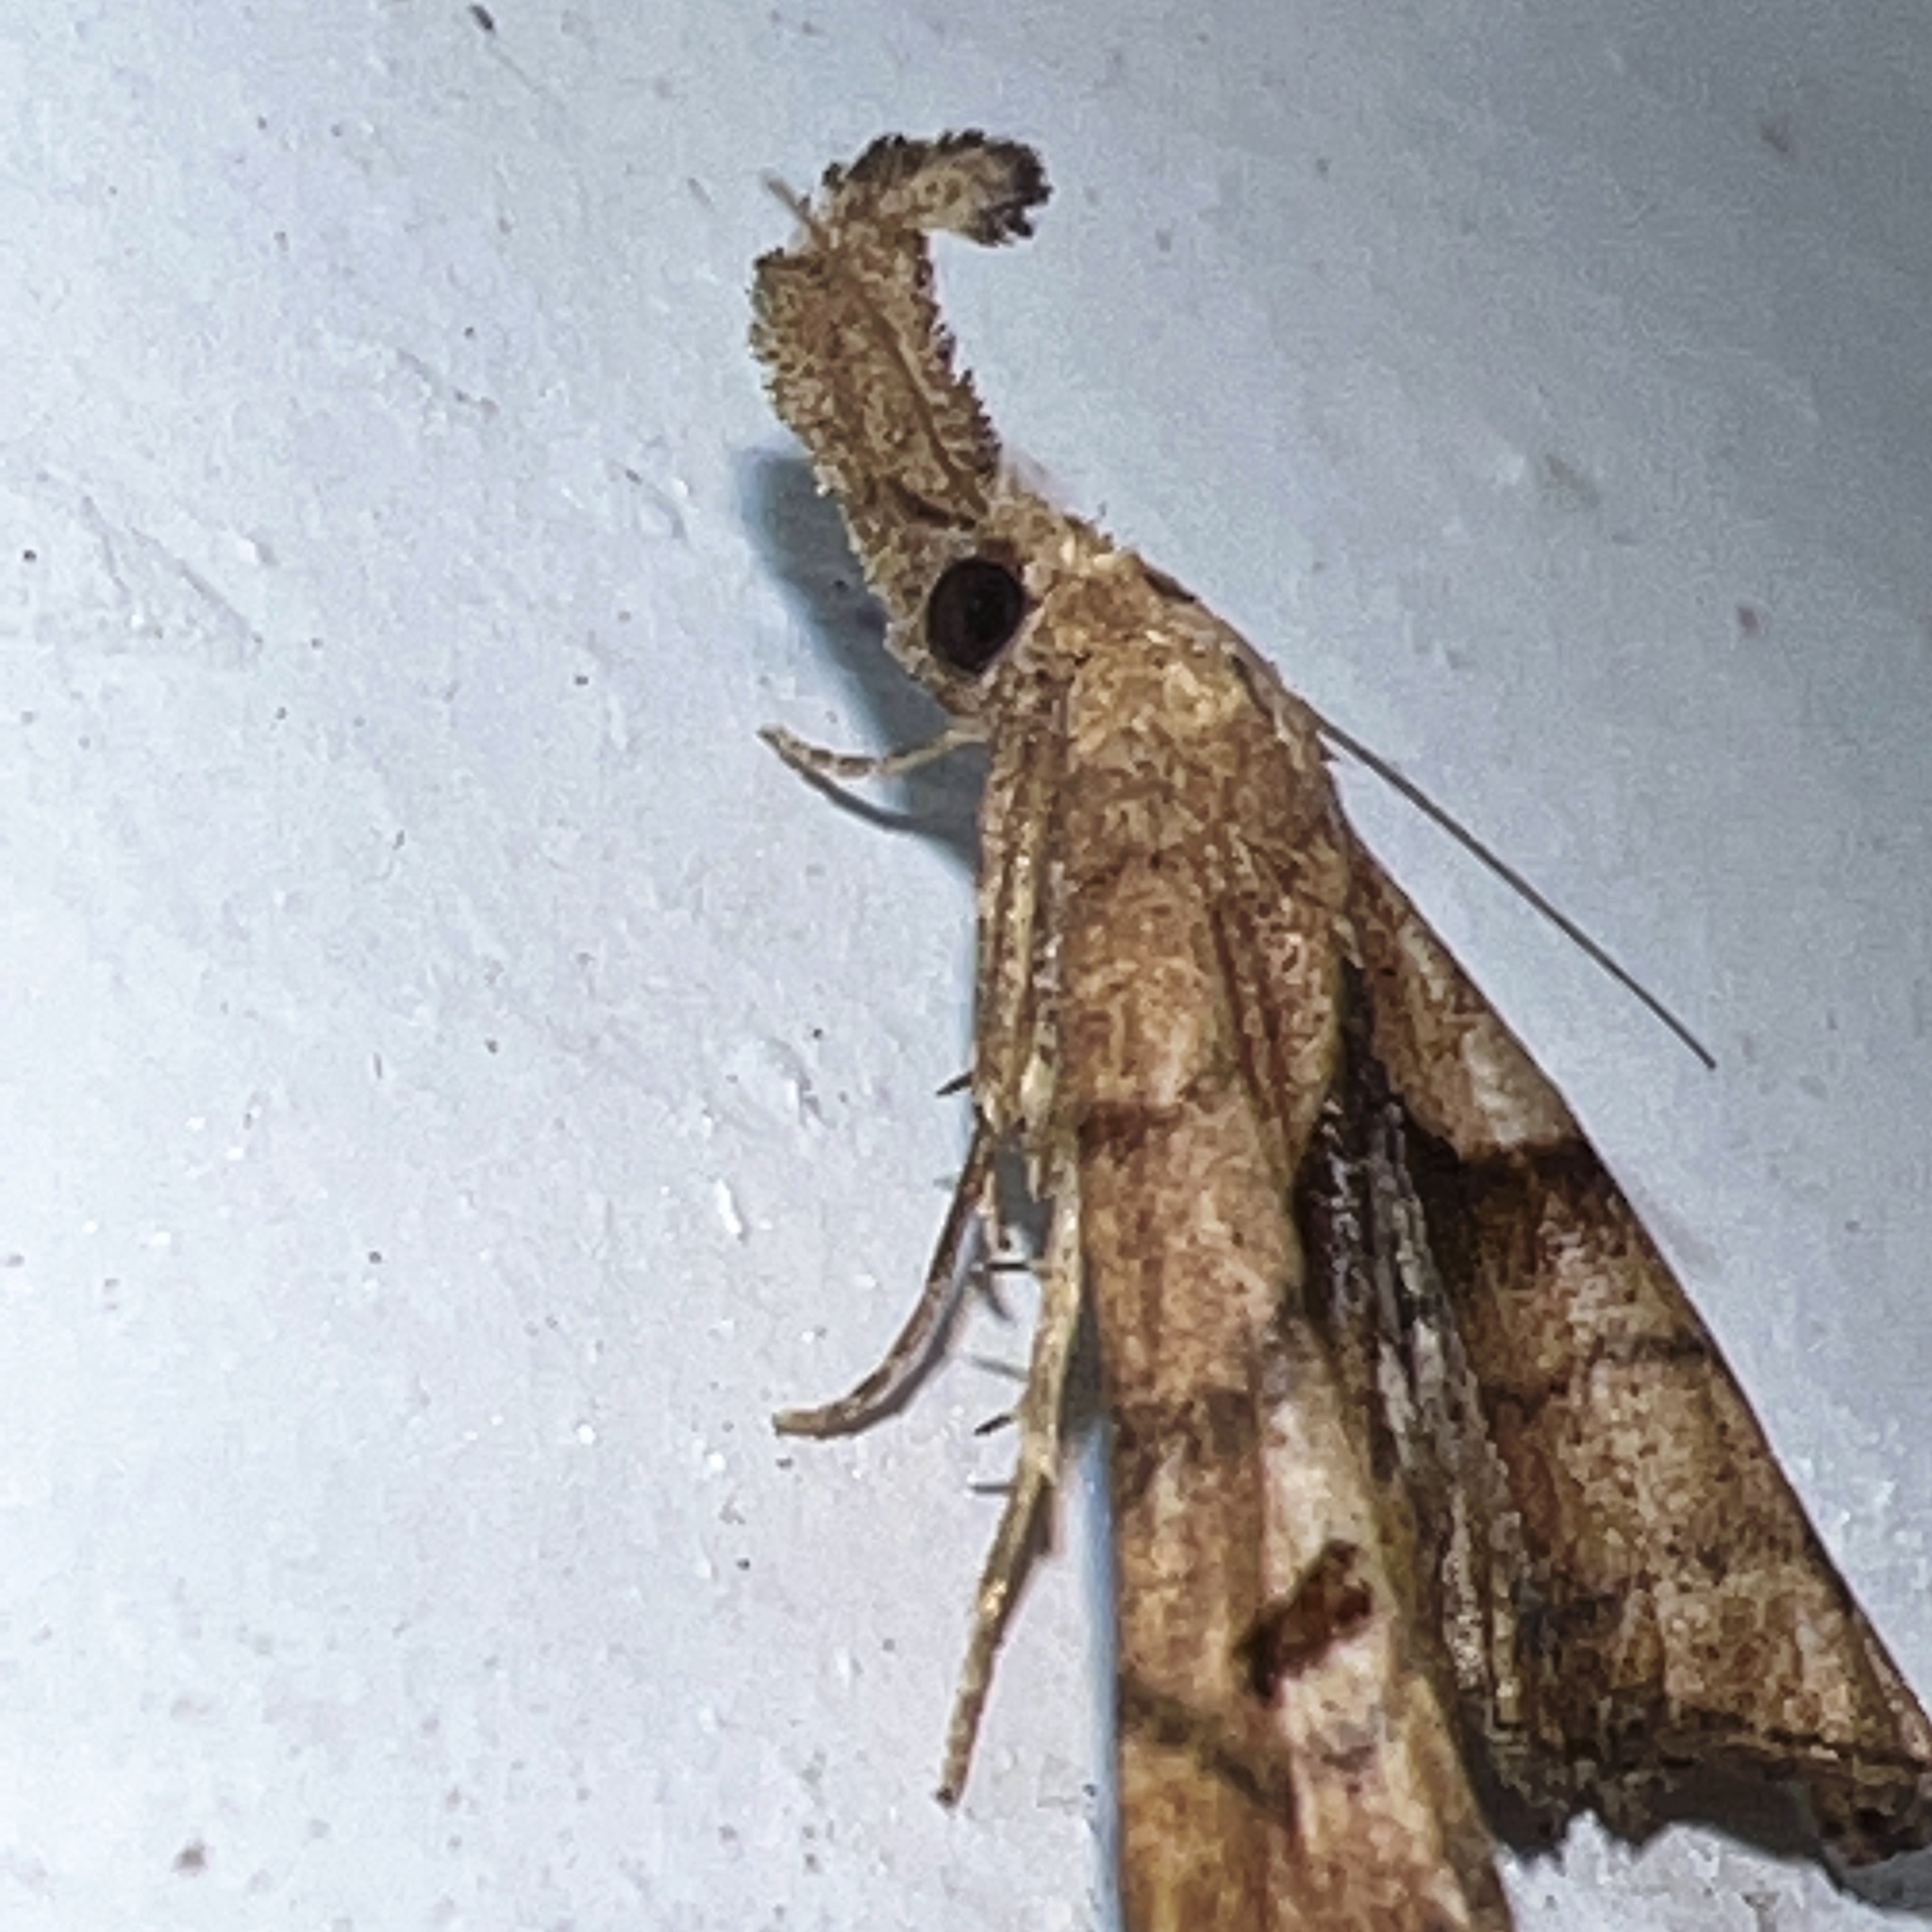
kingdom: Animalia
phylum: Arthropoda
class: Insecta
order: Lepidoptera
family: Erebidae
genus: Palthis
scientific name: Palthis angulalis
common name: Dark-spotted palthis moth
